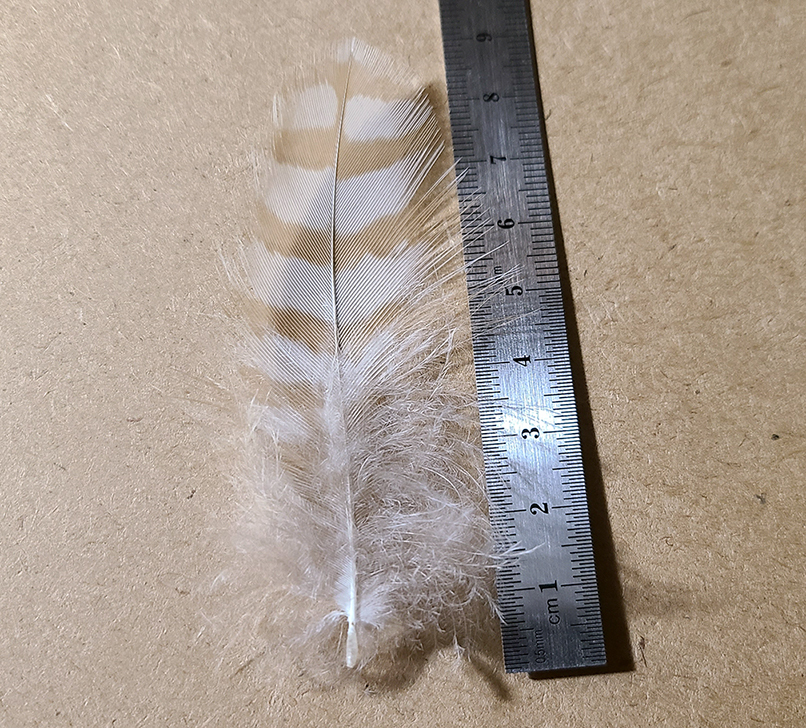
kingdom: Animalia
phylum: Chordata
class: Aves
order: Accipitriformes
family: Accipitridae
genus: Accipiter
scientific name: Accipiter cooperii
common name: Cooper's hawk
